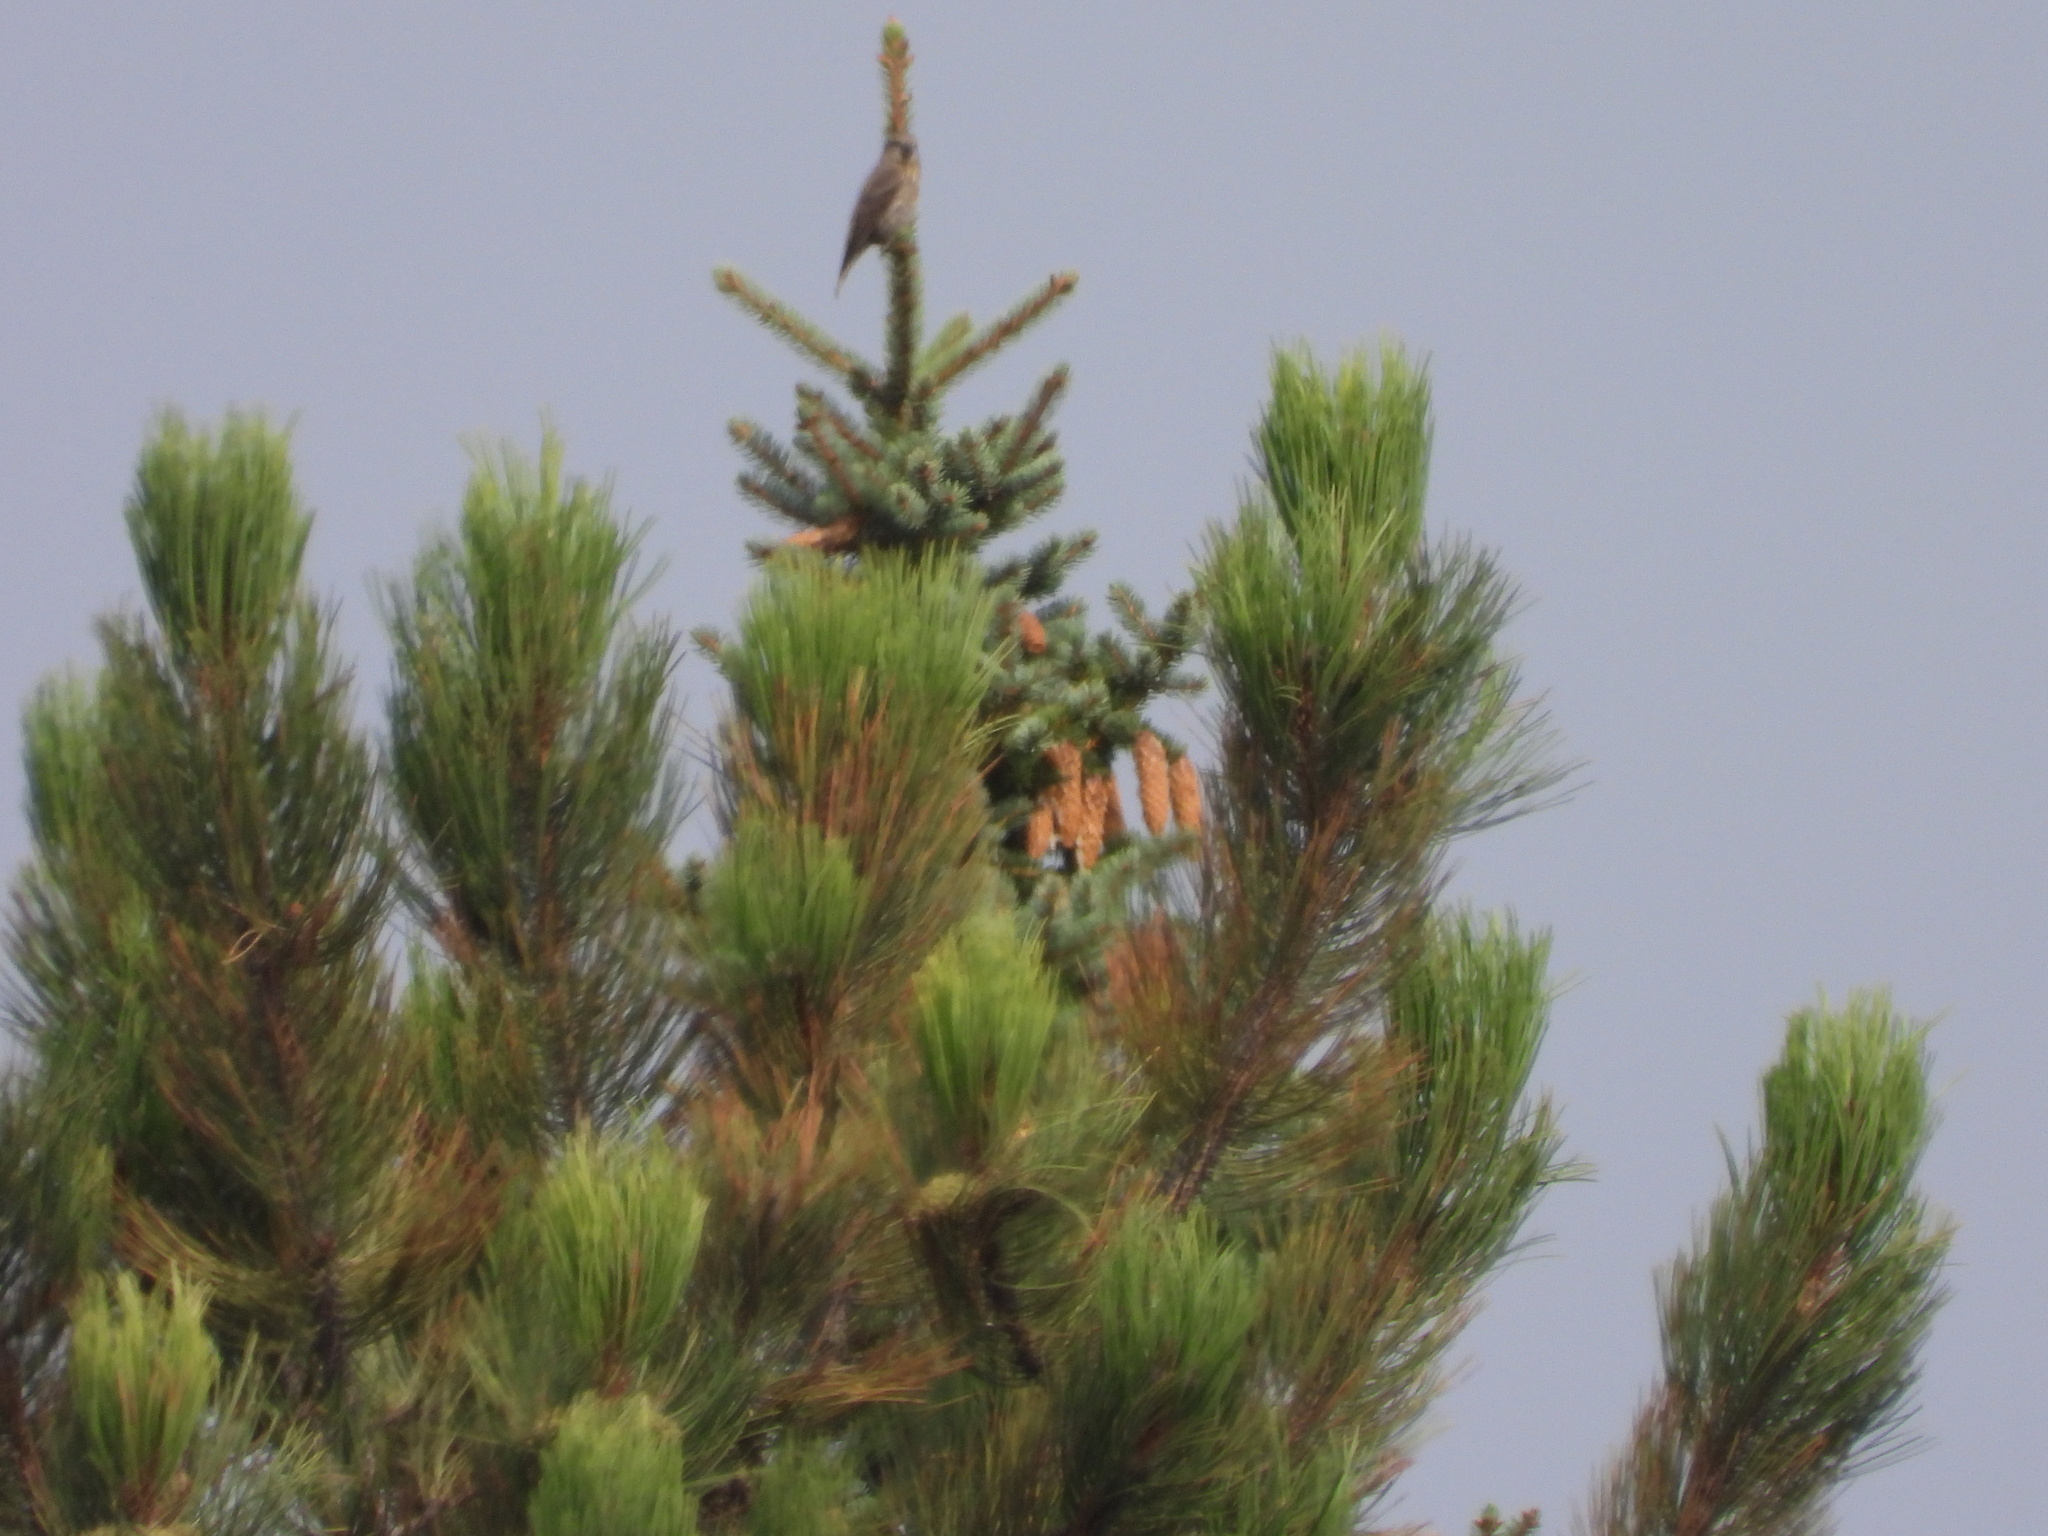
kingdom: Animalia
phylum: Chordata
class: Aves
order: Passeriformes
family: Fringillidae
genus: Loxia
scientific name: Loxia curvirostra
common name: Red crossbill
